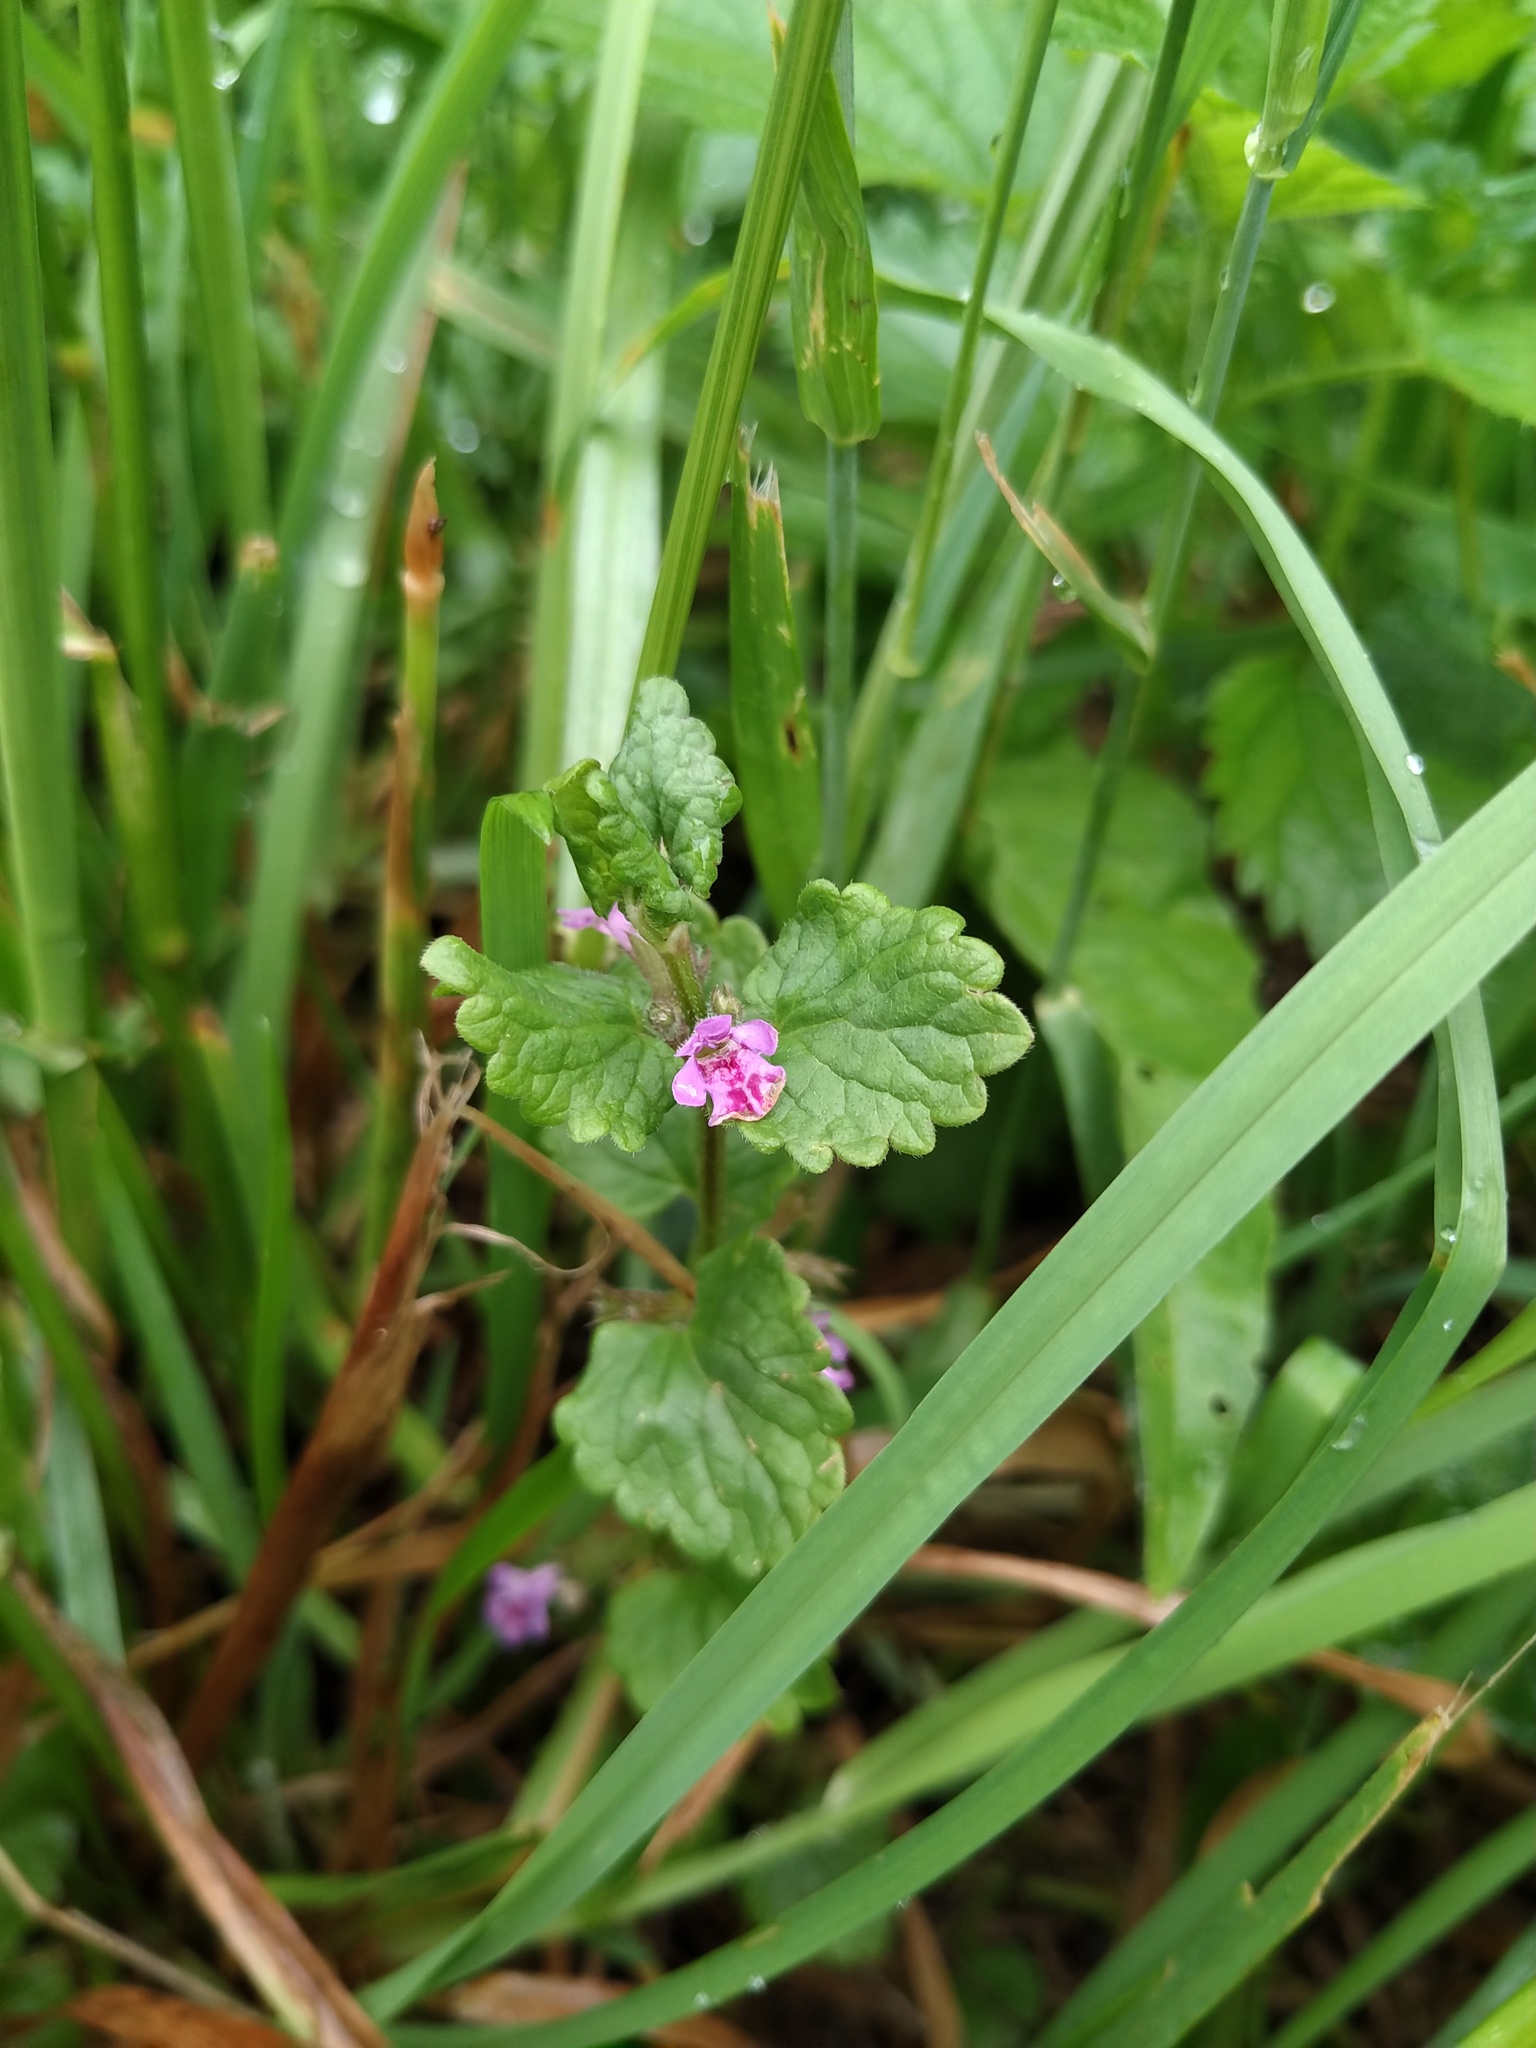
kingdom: Plantae
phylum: Tracheophyta
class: Magnoliopsida
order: Lamiales
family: Lamiaceae
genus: Glechoma
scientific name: Glechoma hederacea
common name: Ground ivy
